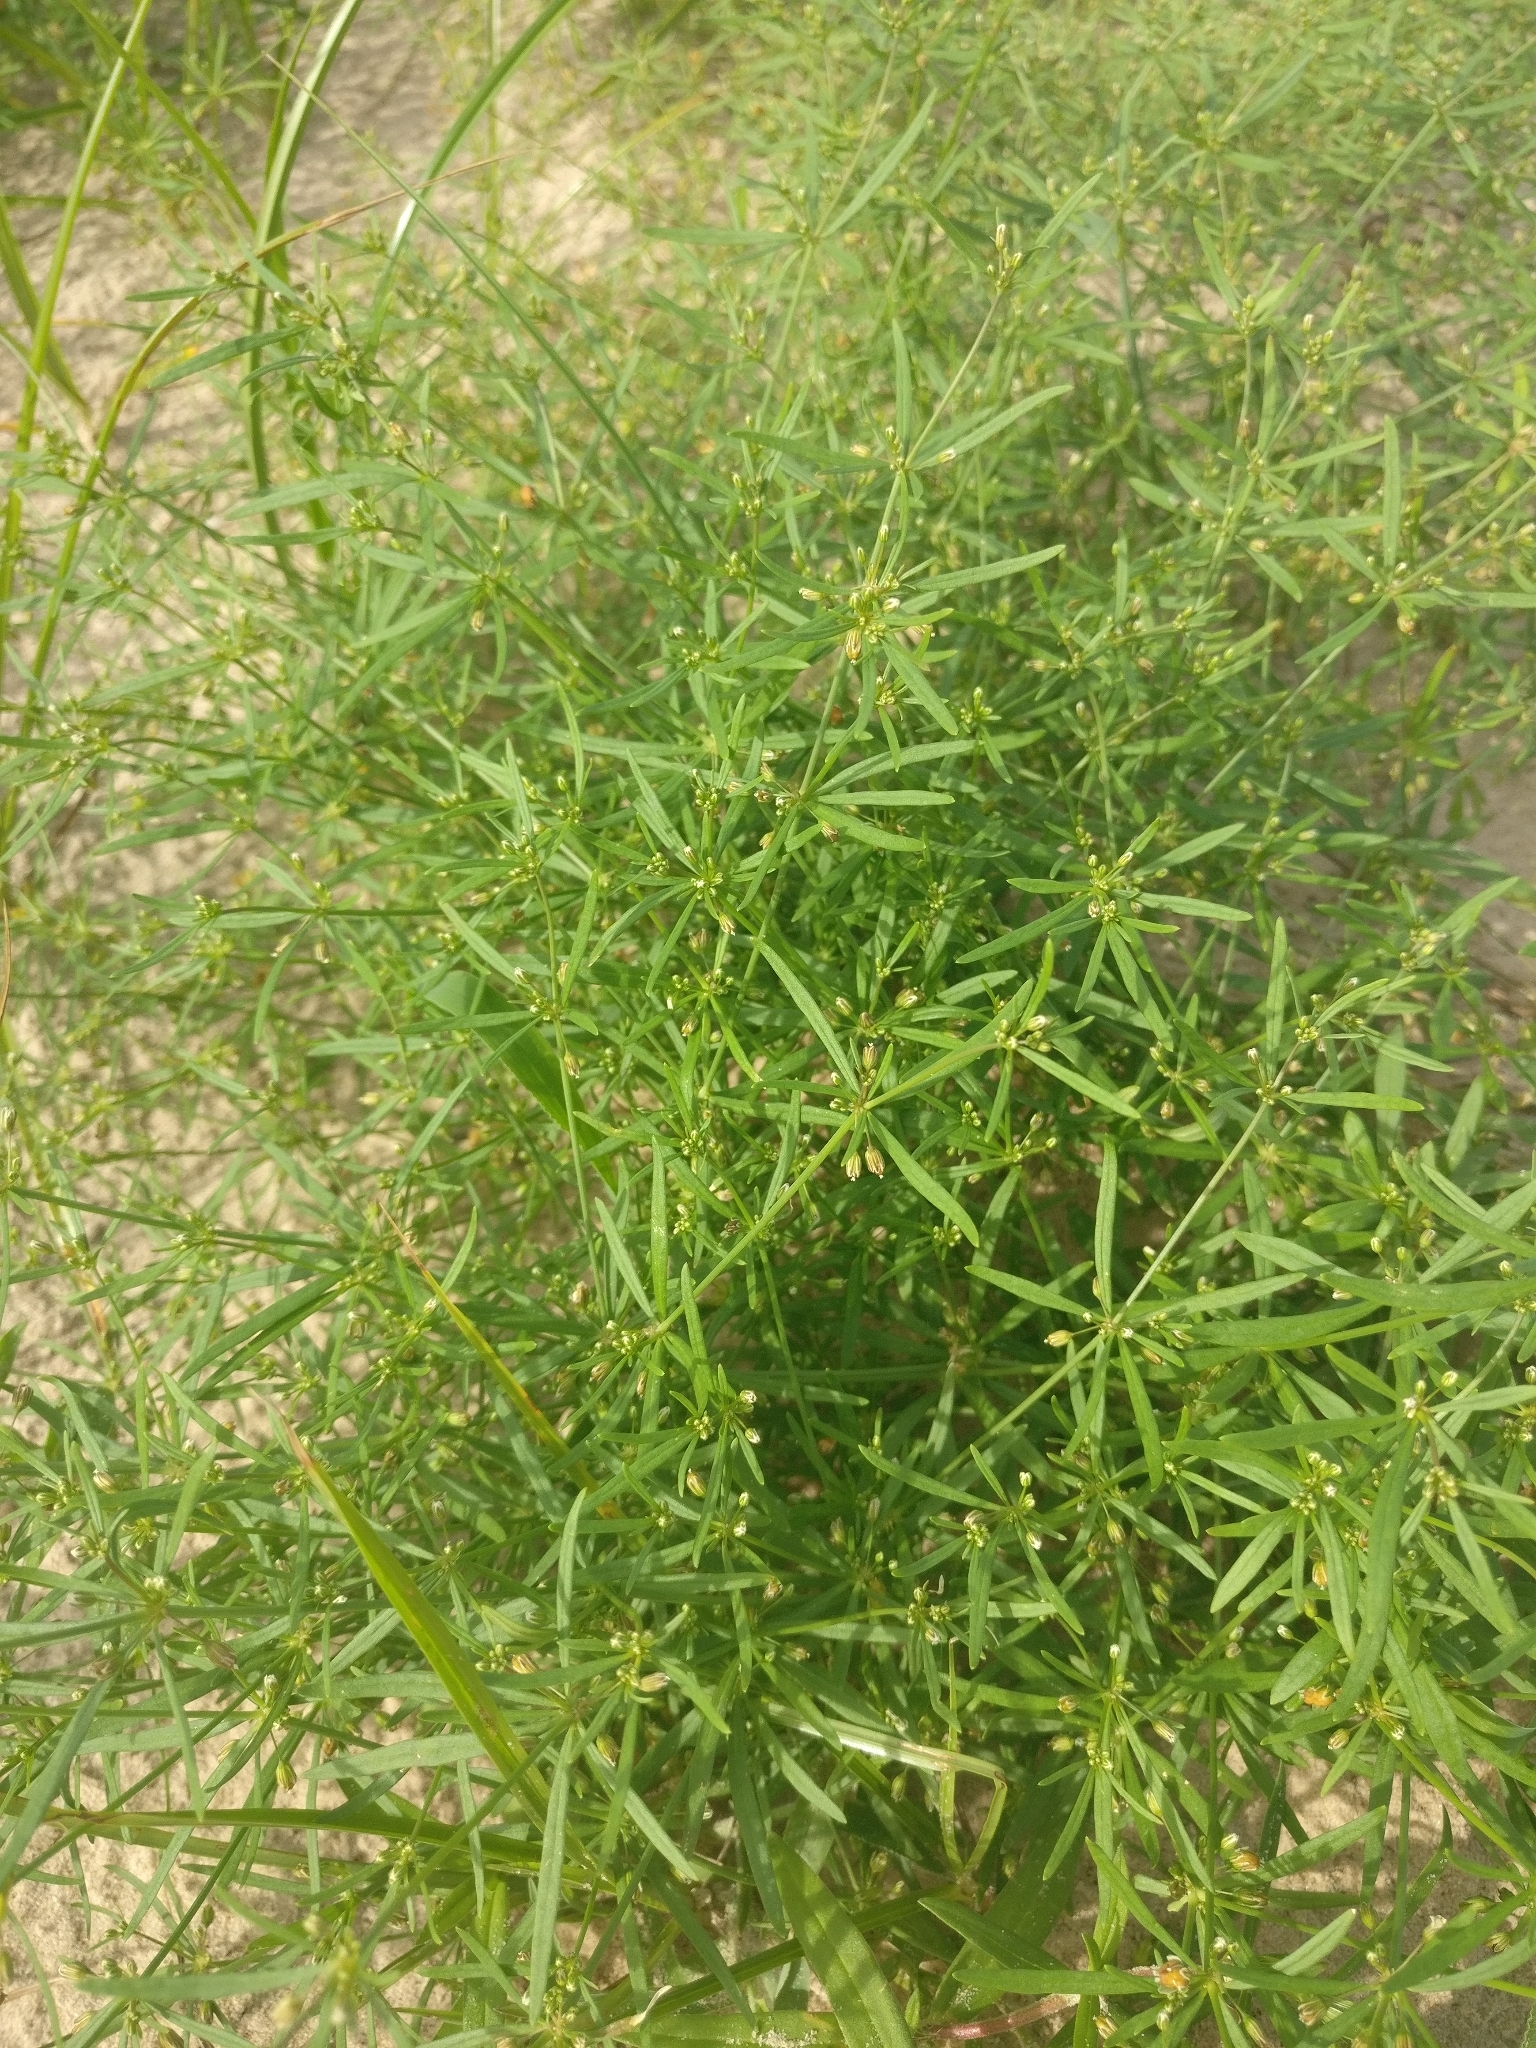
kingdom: Plantae
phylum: Tracheophyta
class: Magnoliopsida
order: Caryophyllales
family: Molluginaceae
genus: Mollugo
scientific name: Mollugo verticillata
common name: Green carpetweed
